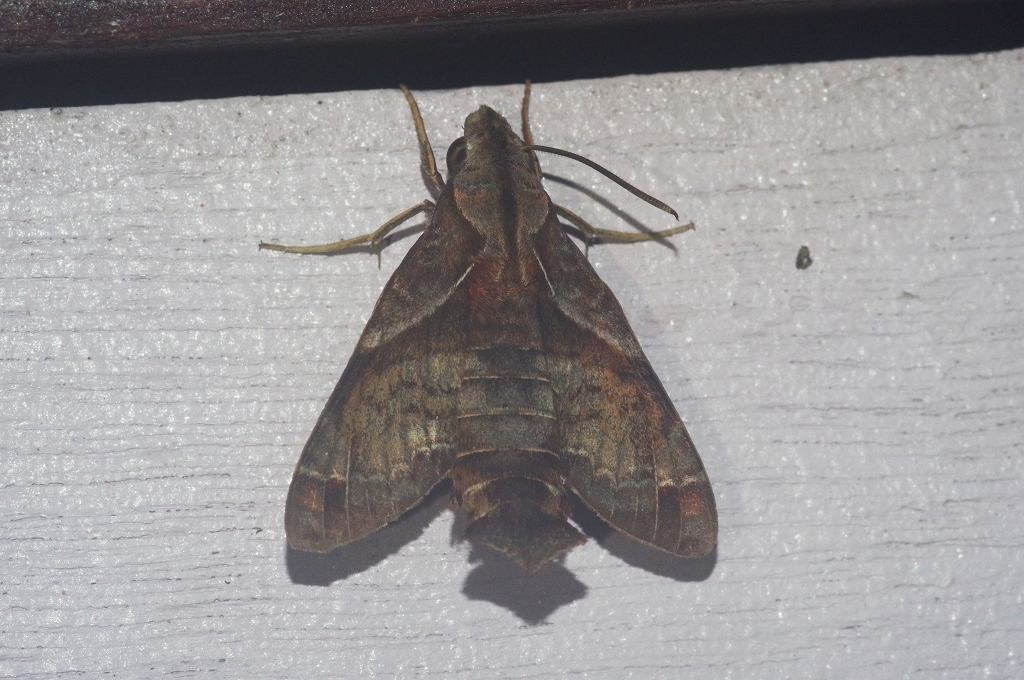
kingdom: Animalia
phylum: Arthropoda
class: Insecta
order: Lepidoptera
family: Sphingidae
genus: Macroglossum
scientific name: Macroglossum fritzei
